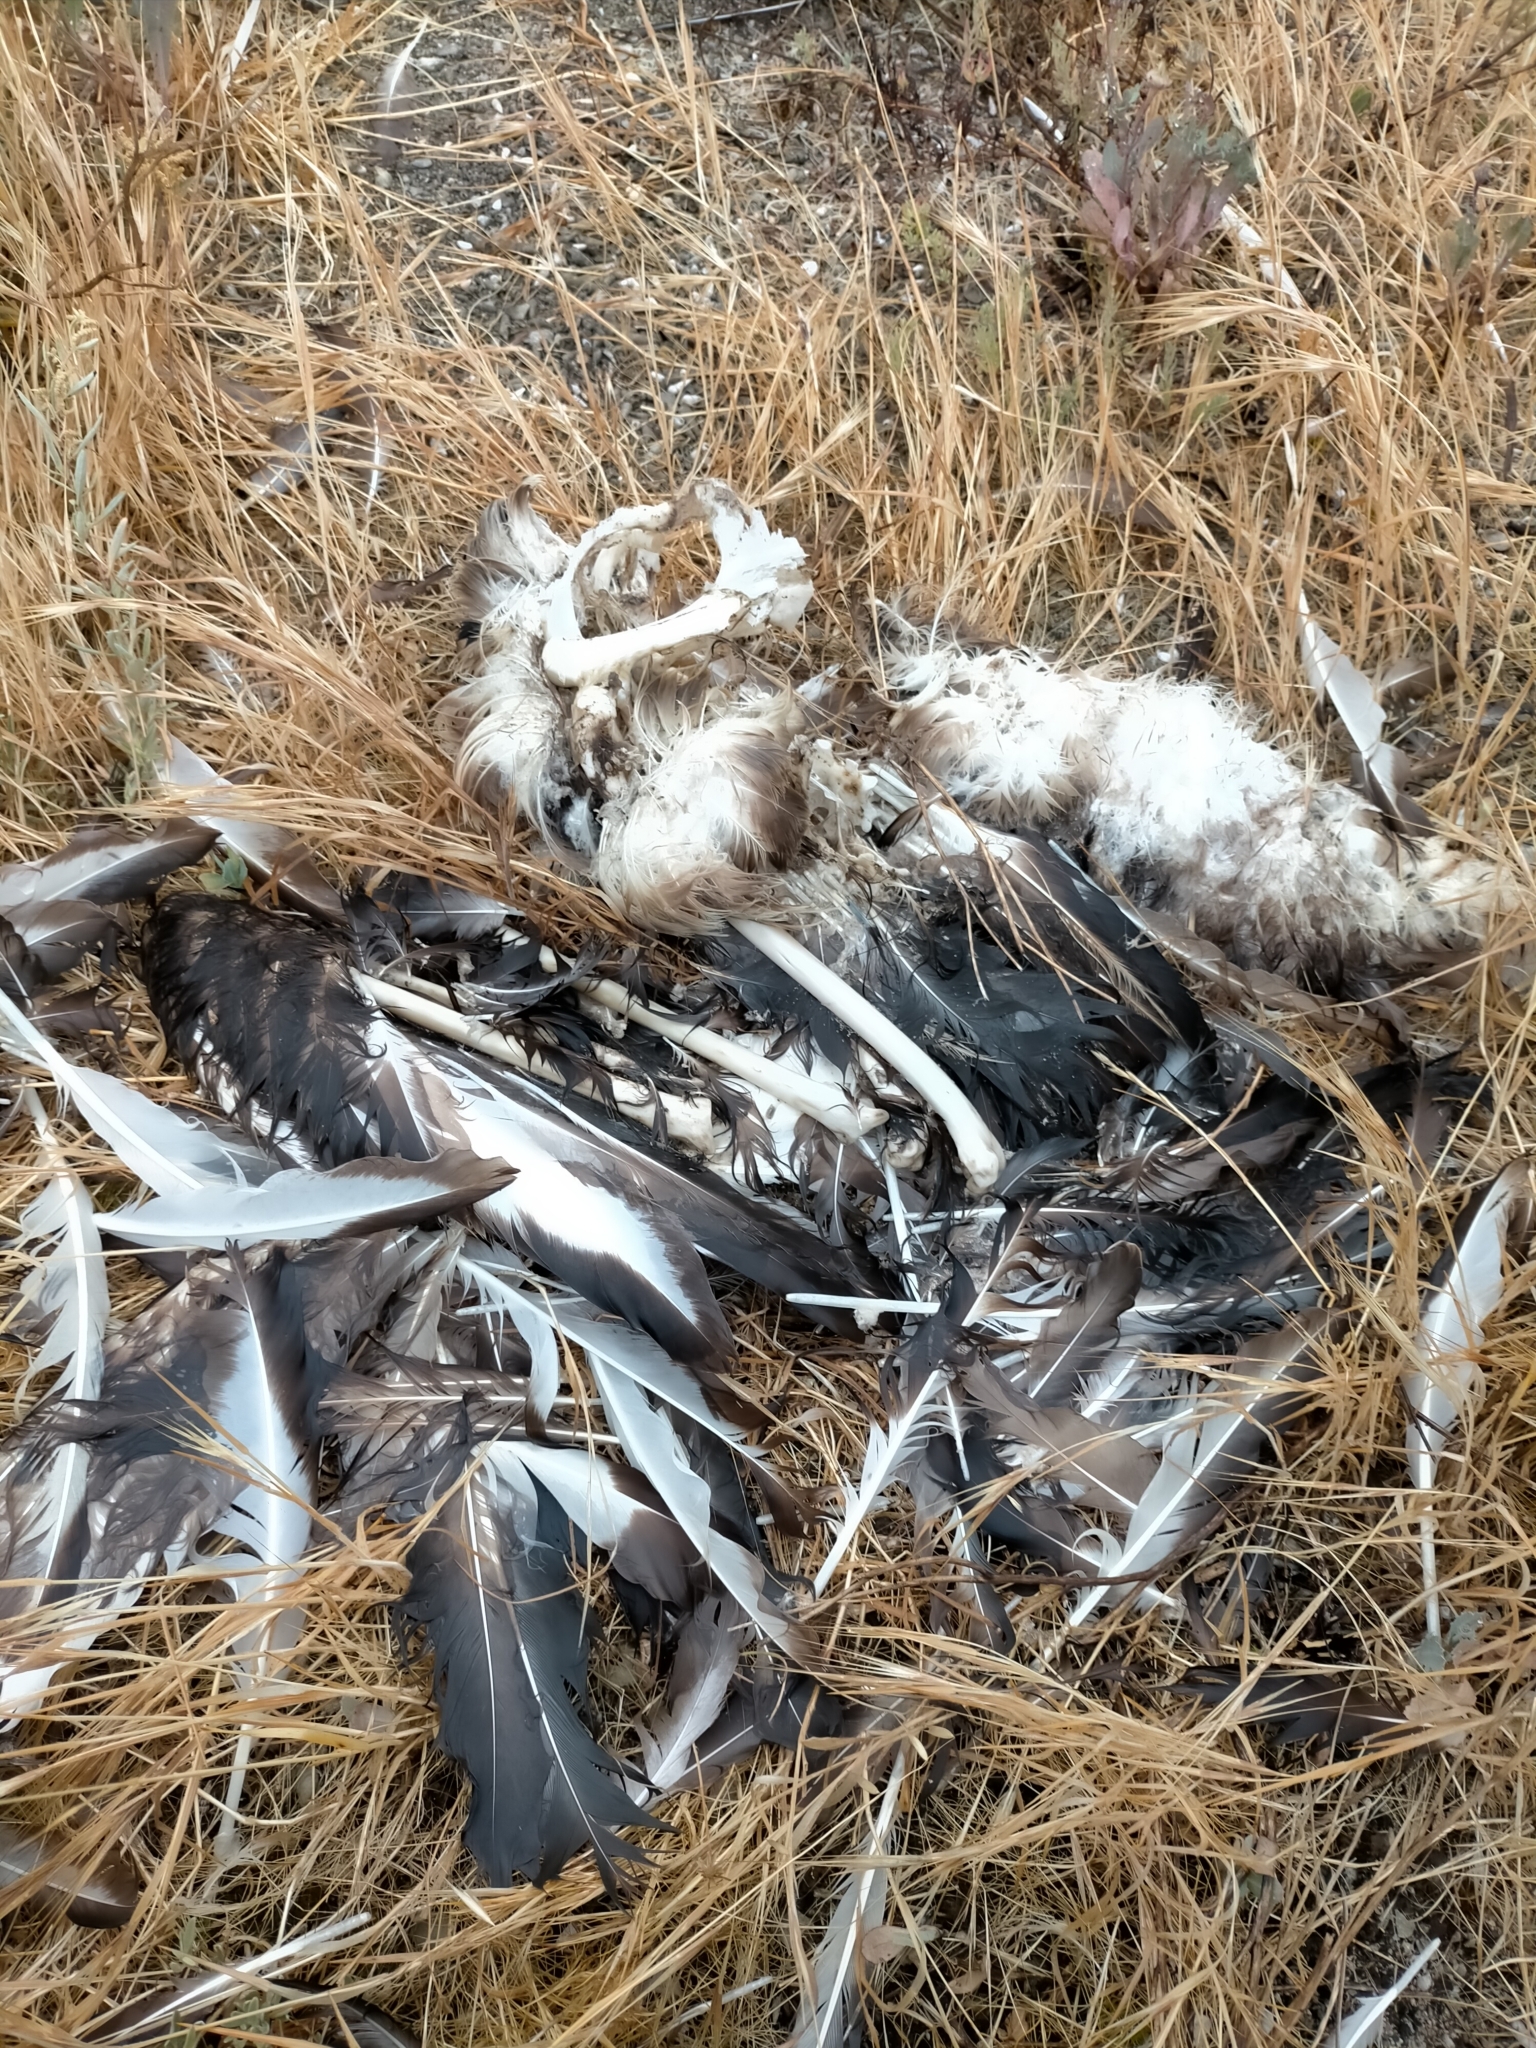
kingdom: Animalia
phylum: Chordata
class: Aves
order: Anseriformes
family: Anatidae
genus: Cygnus
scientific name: Cygnus atratus
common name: Black swan
